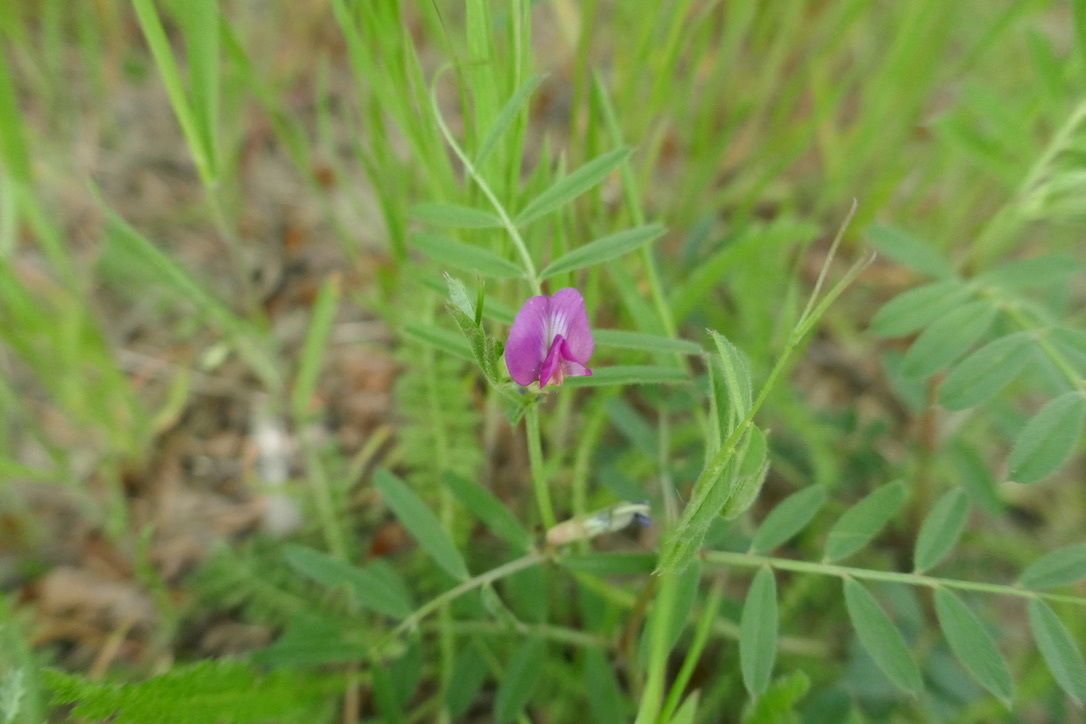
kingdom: Plantae
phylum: Tracheophyta
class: Magnoliopsida
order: Fabales
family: Fabaceae
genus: Vicia
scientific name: Vicia sativa
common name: Garden vetch
